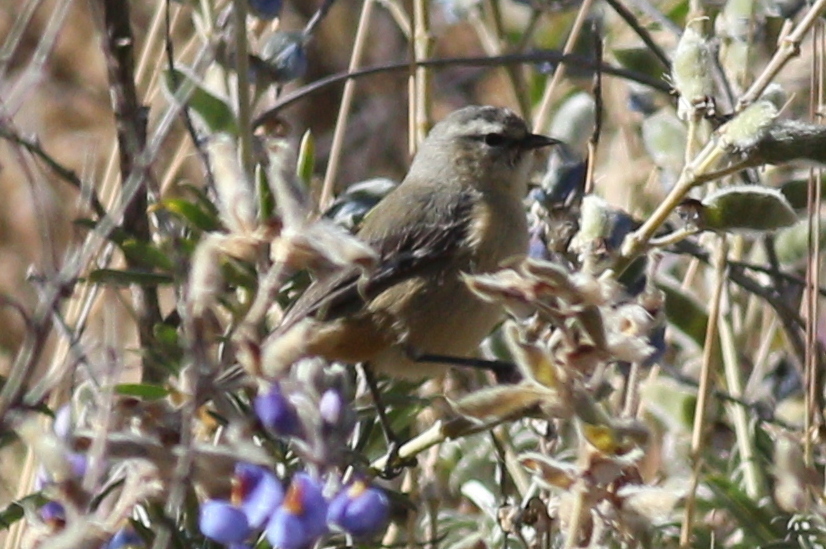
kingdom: Animalia
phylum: Chordata
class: Aves
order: Passeriformes
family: Thraupidae
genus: Conirostrum
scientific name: Conirostrum cinereum
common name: Cinereous conebill
